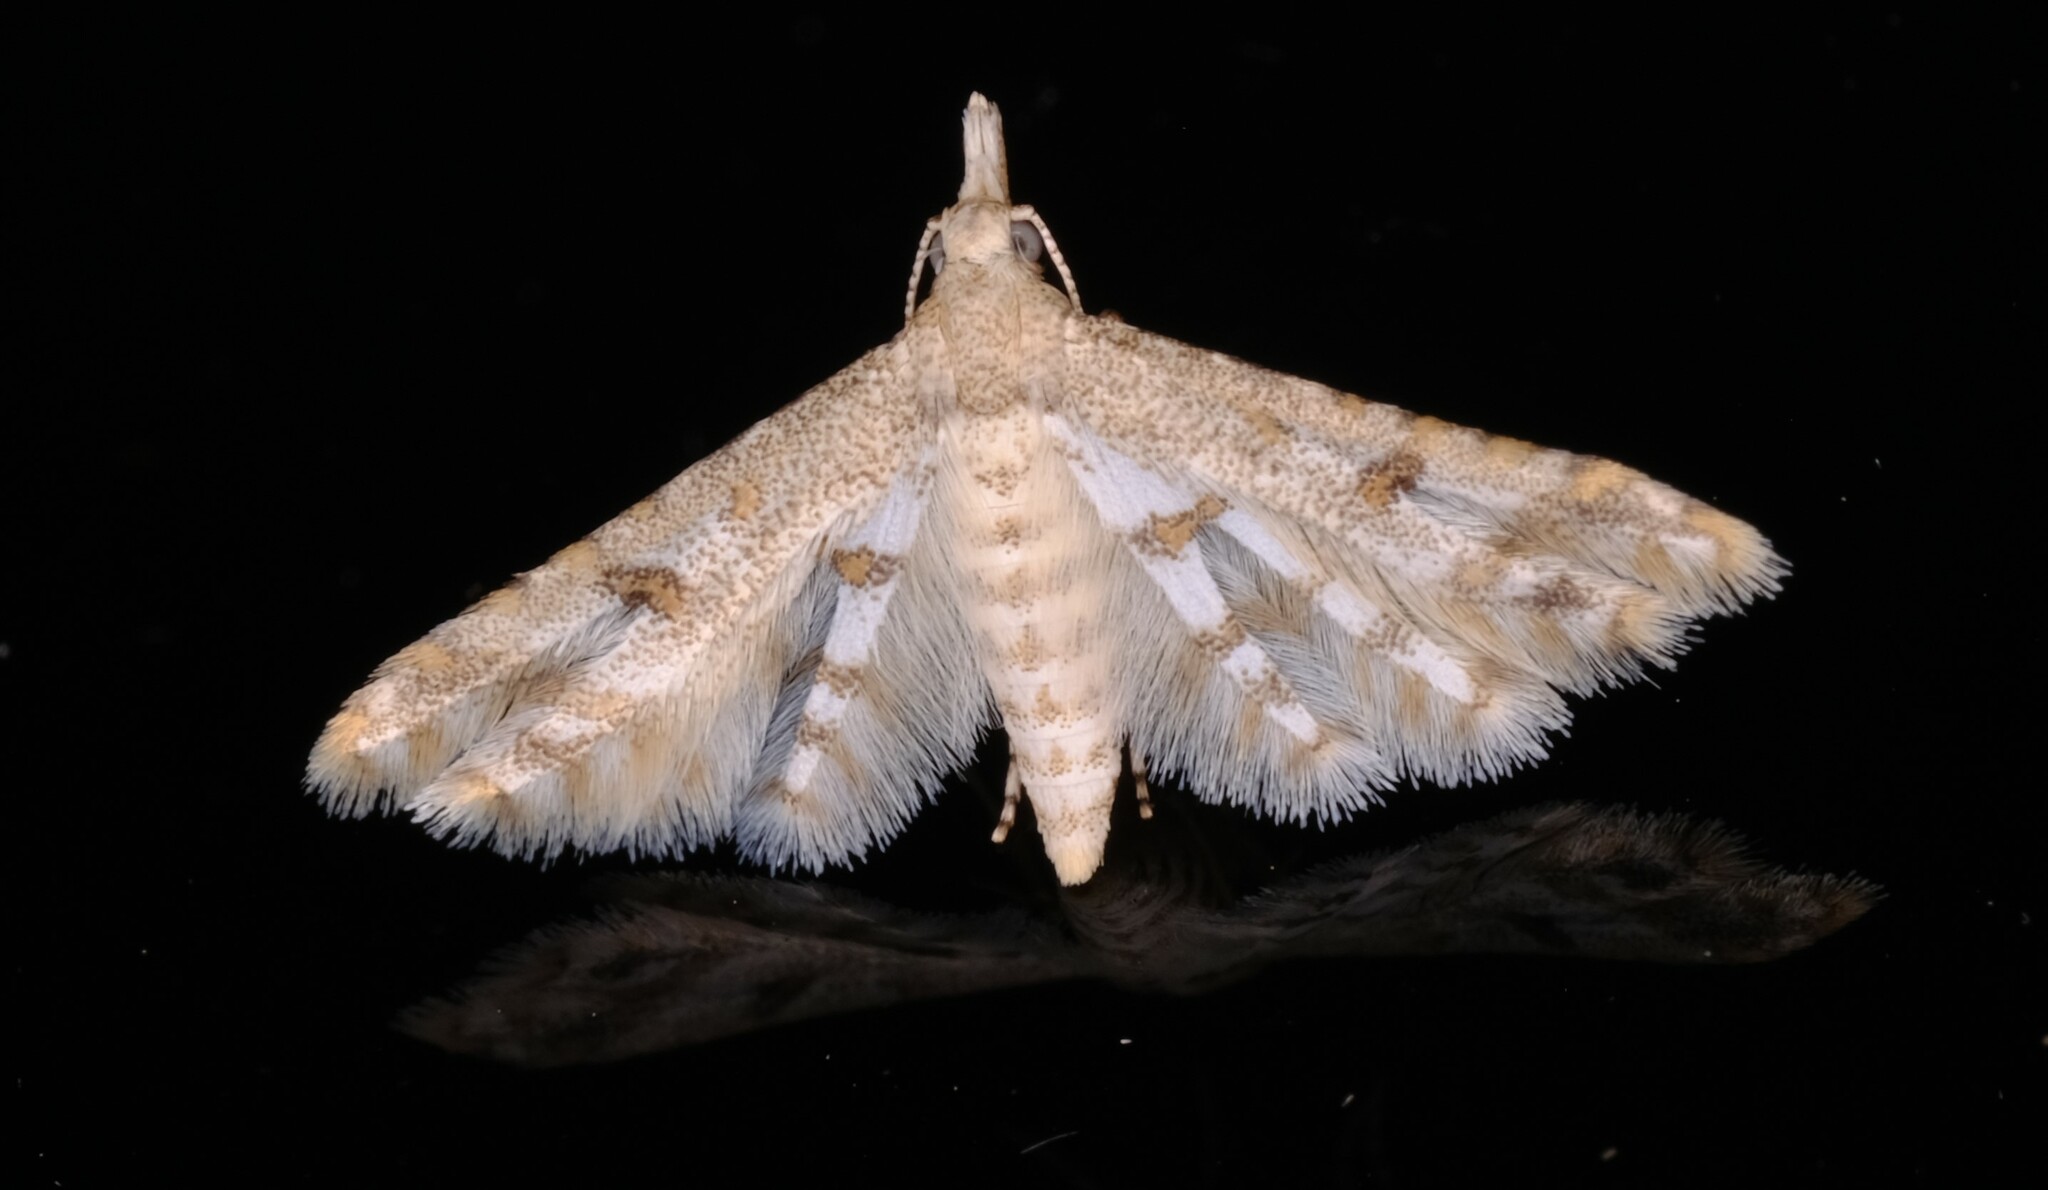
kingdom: Animalia
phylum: Arthropoda
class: Insecta
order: Lepidoptera
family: Alucitidae
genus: Cenoloba
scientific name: Cenoloba obliteralis
